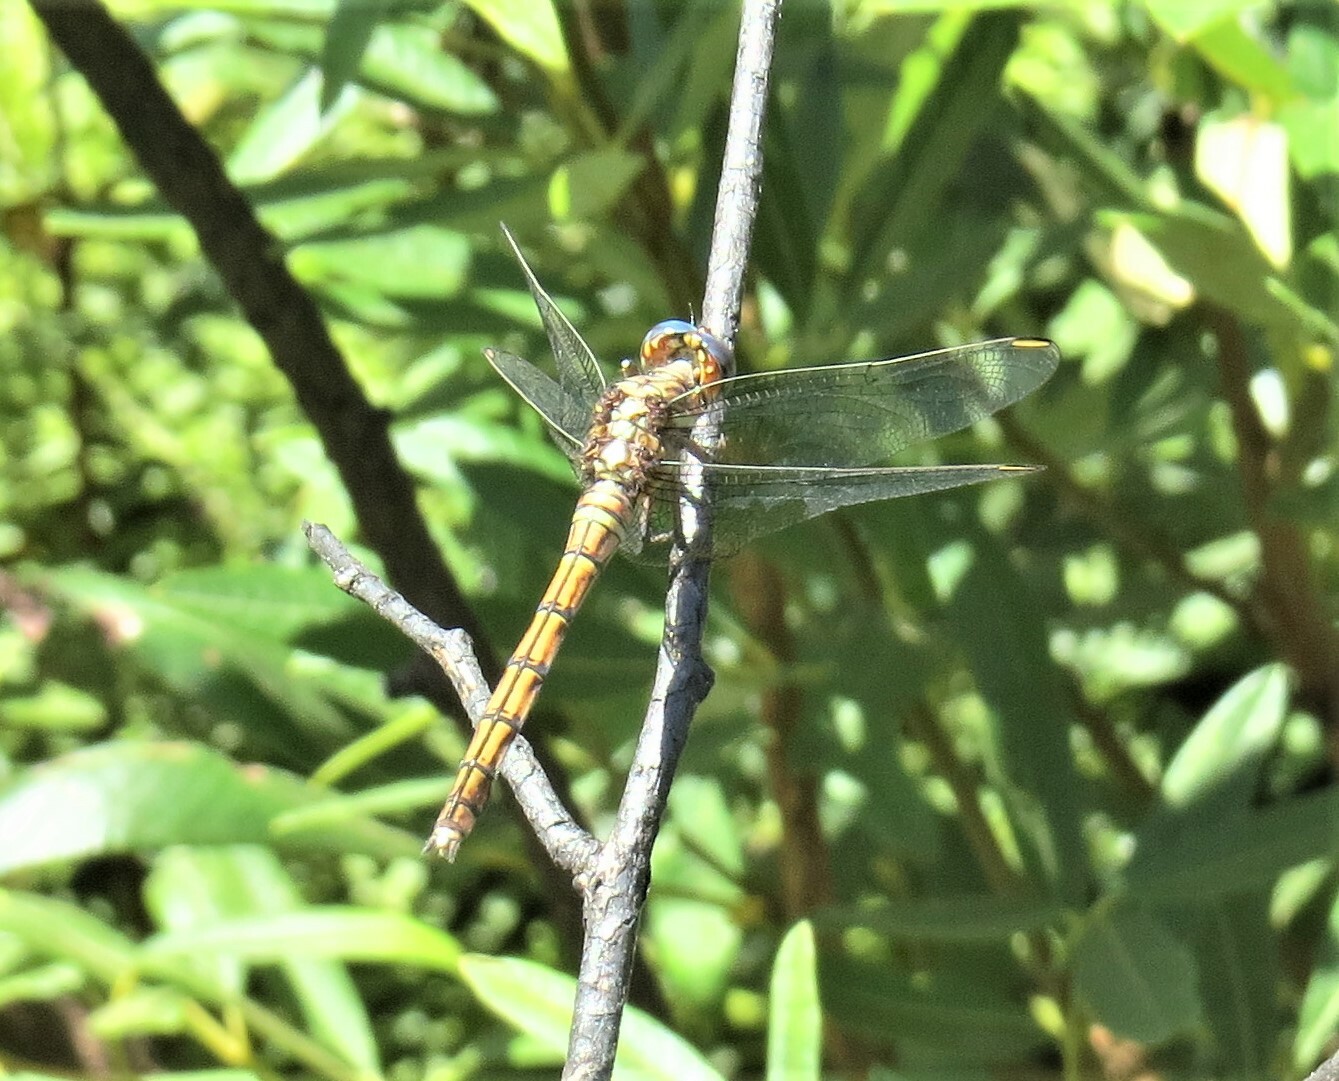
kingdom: Animalia
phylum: Arthropoda
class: Insecta
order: Odonata
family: Libellulidae
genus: Orthetrum
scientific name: Orthetrum julia
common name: Julia skimmer
